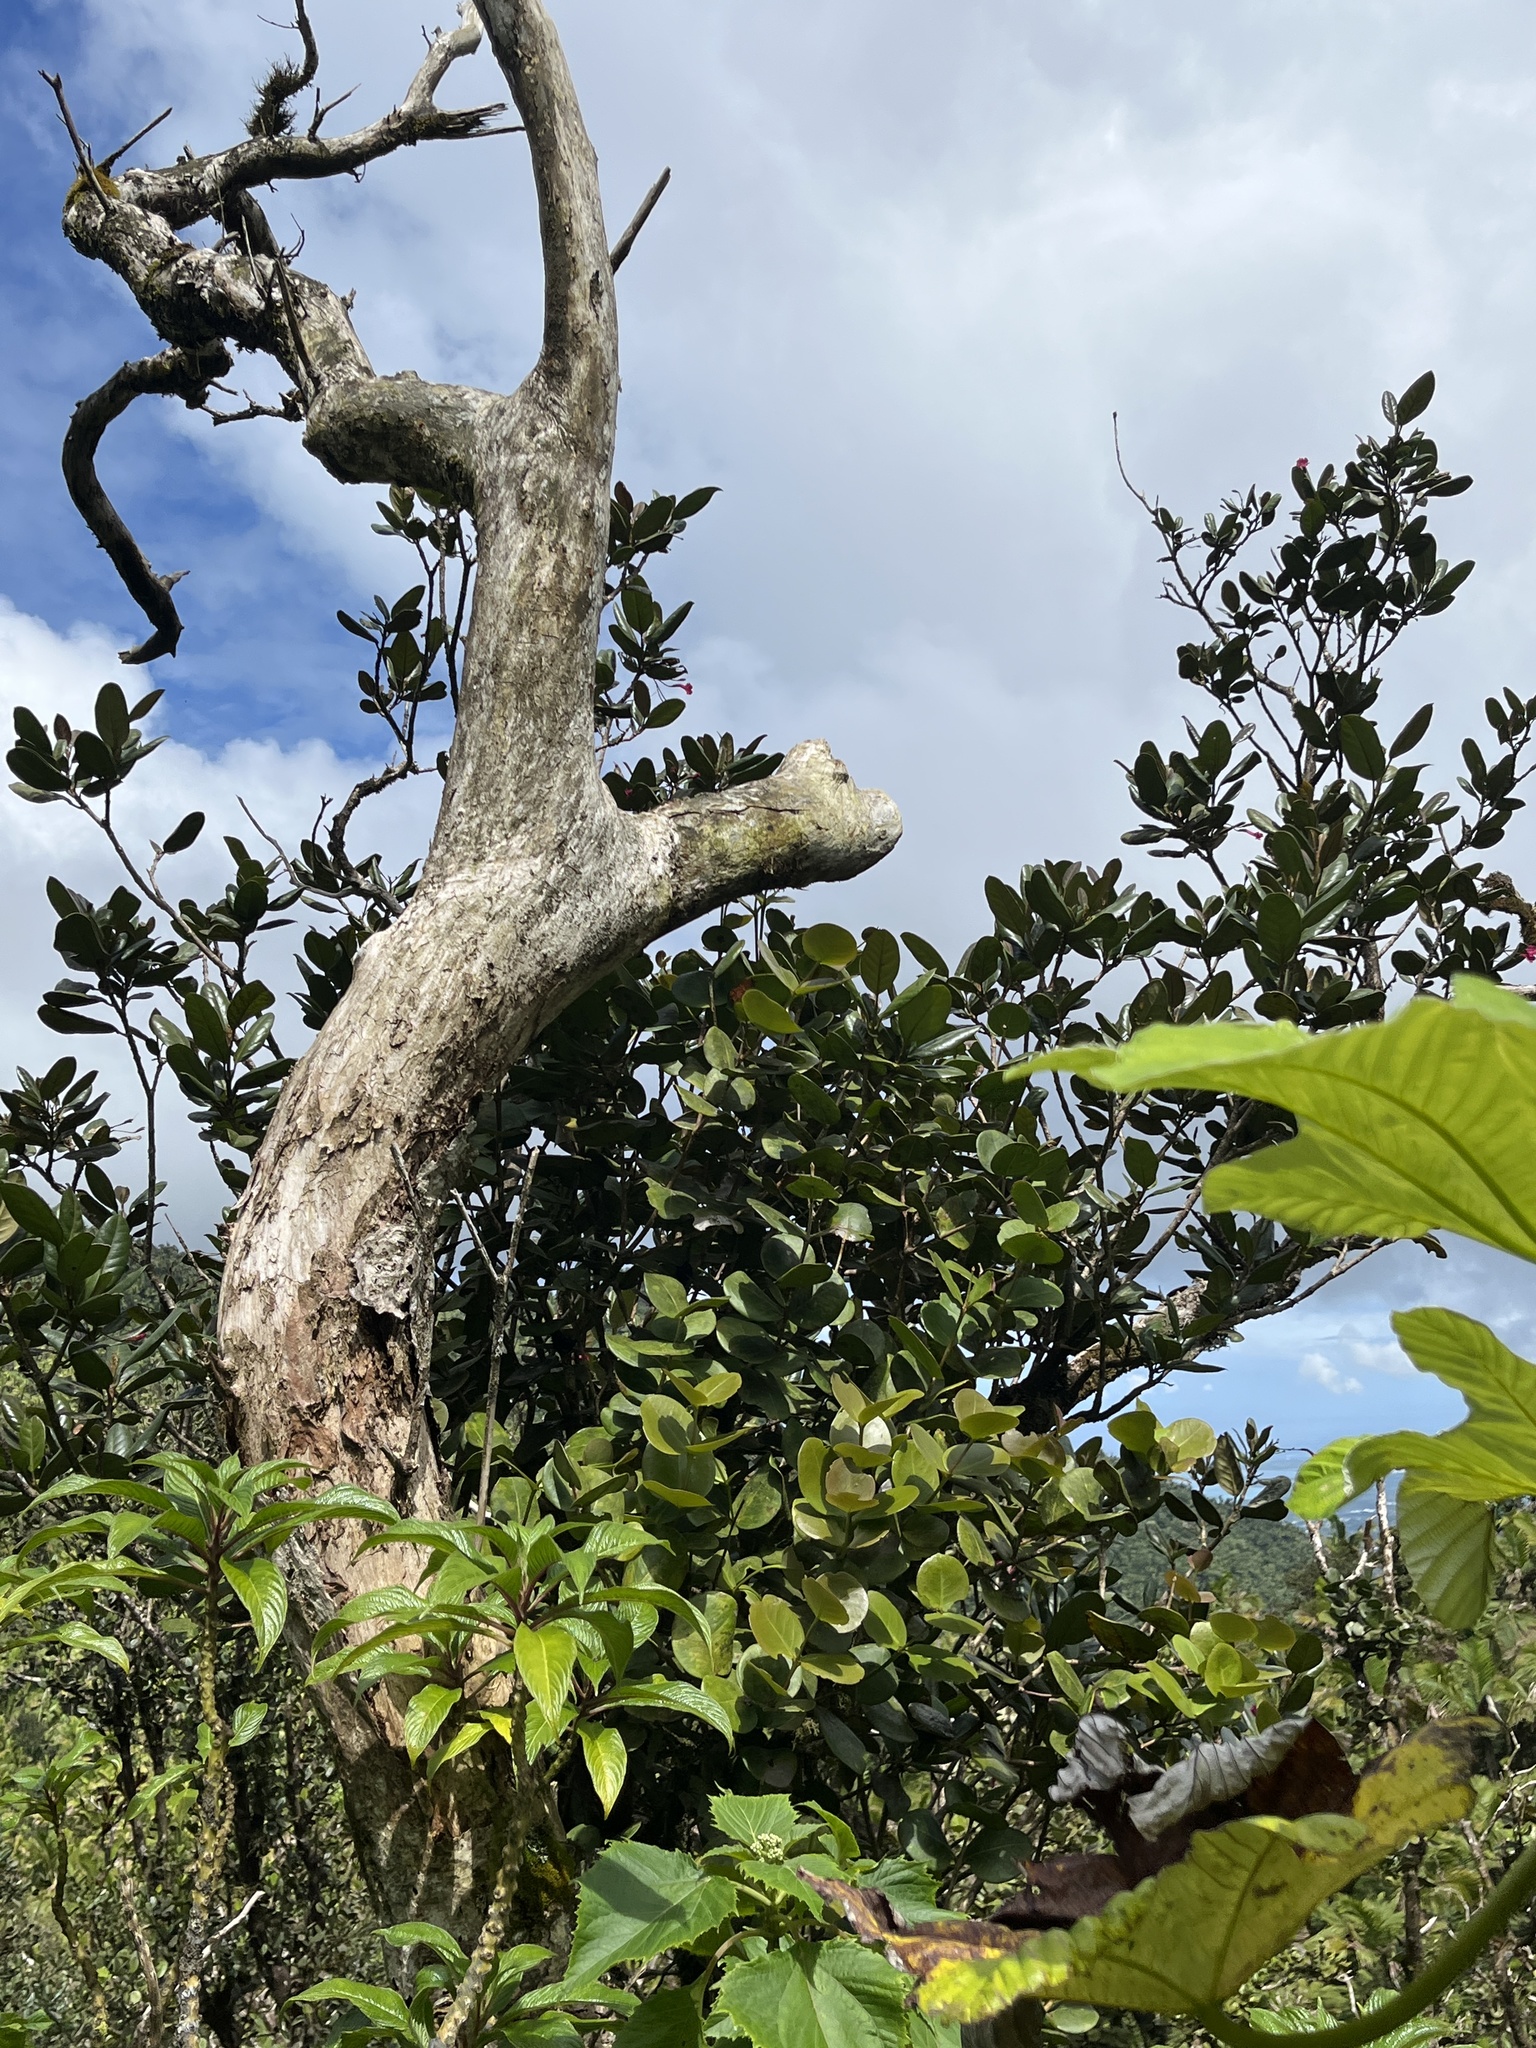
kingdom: Plantae
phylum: Tracheophyta
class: Magnoliopsida
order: Myrtales
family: Myrtaceae
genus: Eugenia
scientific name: Eugenia borinquensis
